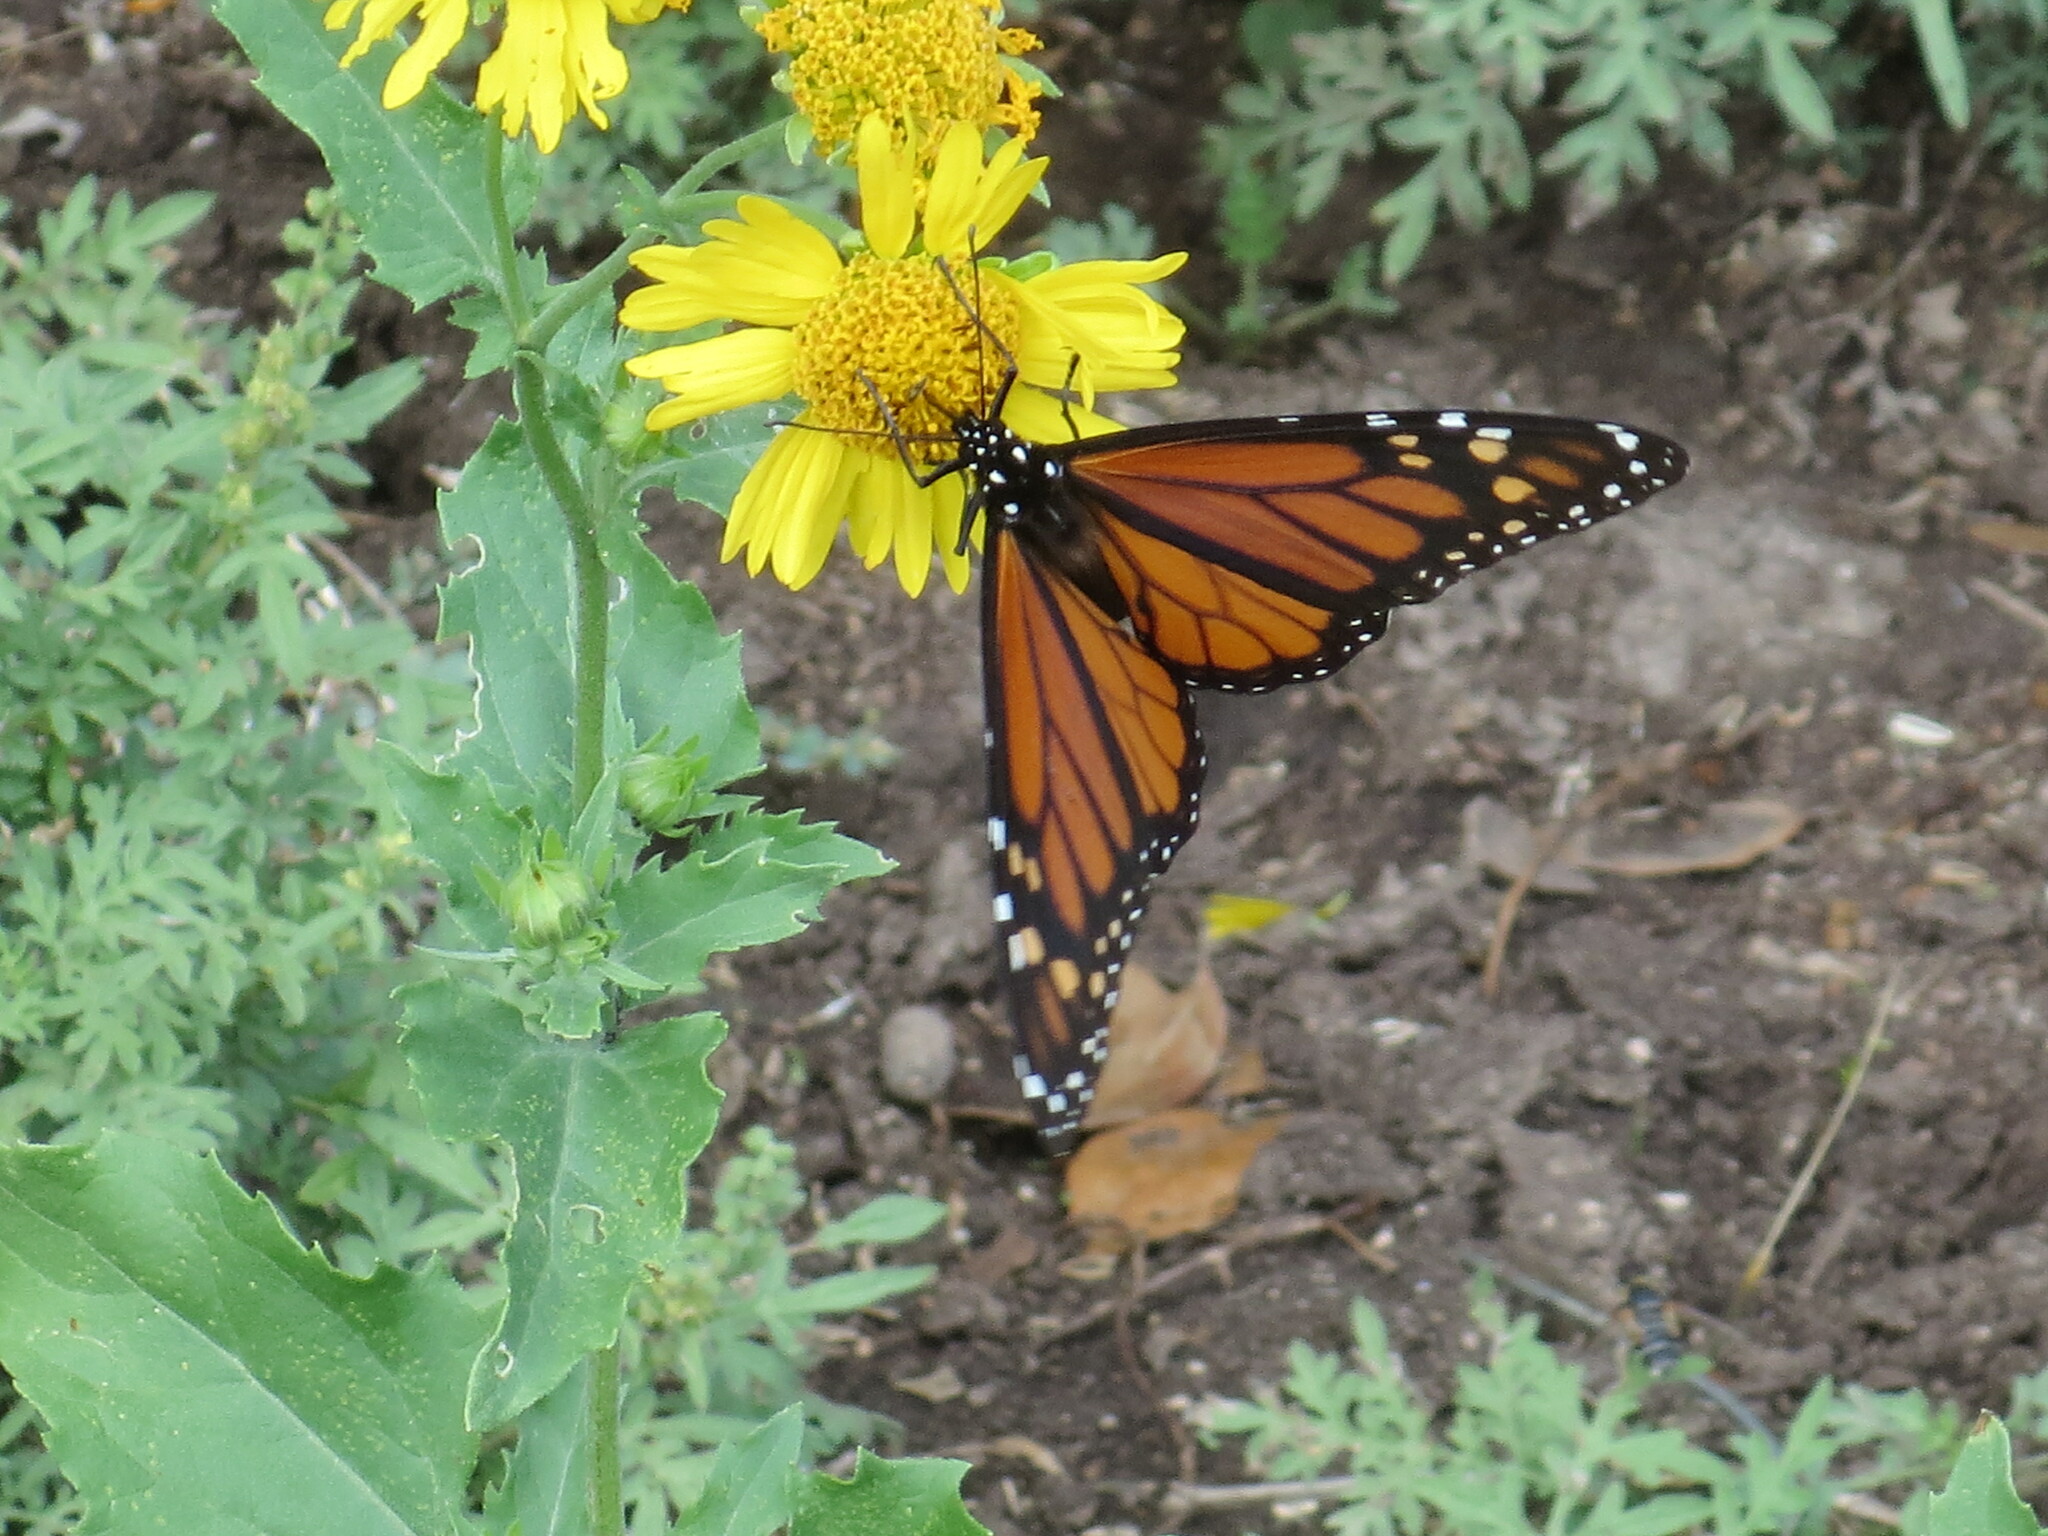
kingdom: Animalia
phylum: Arthropoda
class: Insecta
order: Lepidoptera
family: Nymphalidae
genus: Danaus
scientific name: Danaus plexippus
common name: Monarch
